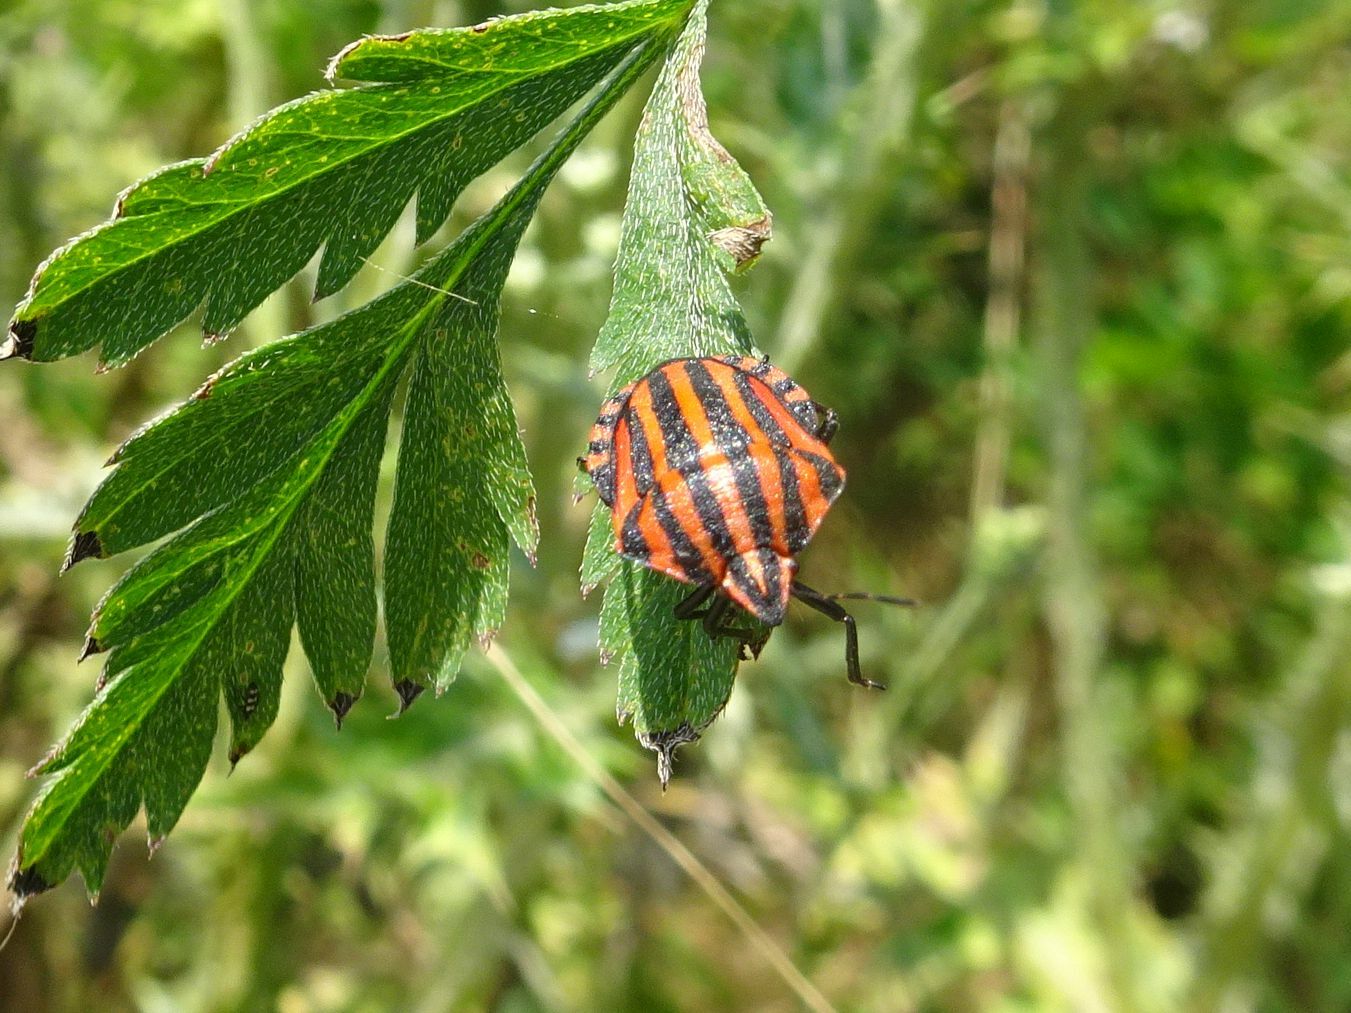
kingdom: Animalia
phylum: Arthropoda
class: Insecta
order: Hemiptera
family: Pentatomidae
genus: Graphosoma
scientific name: Graphosoma italicum
